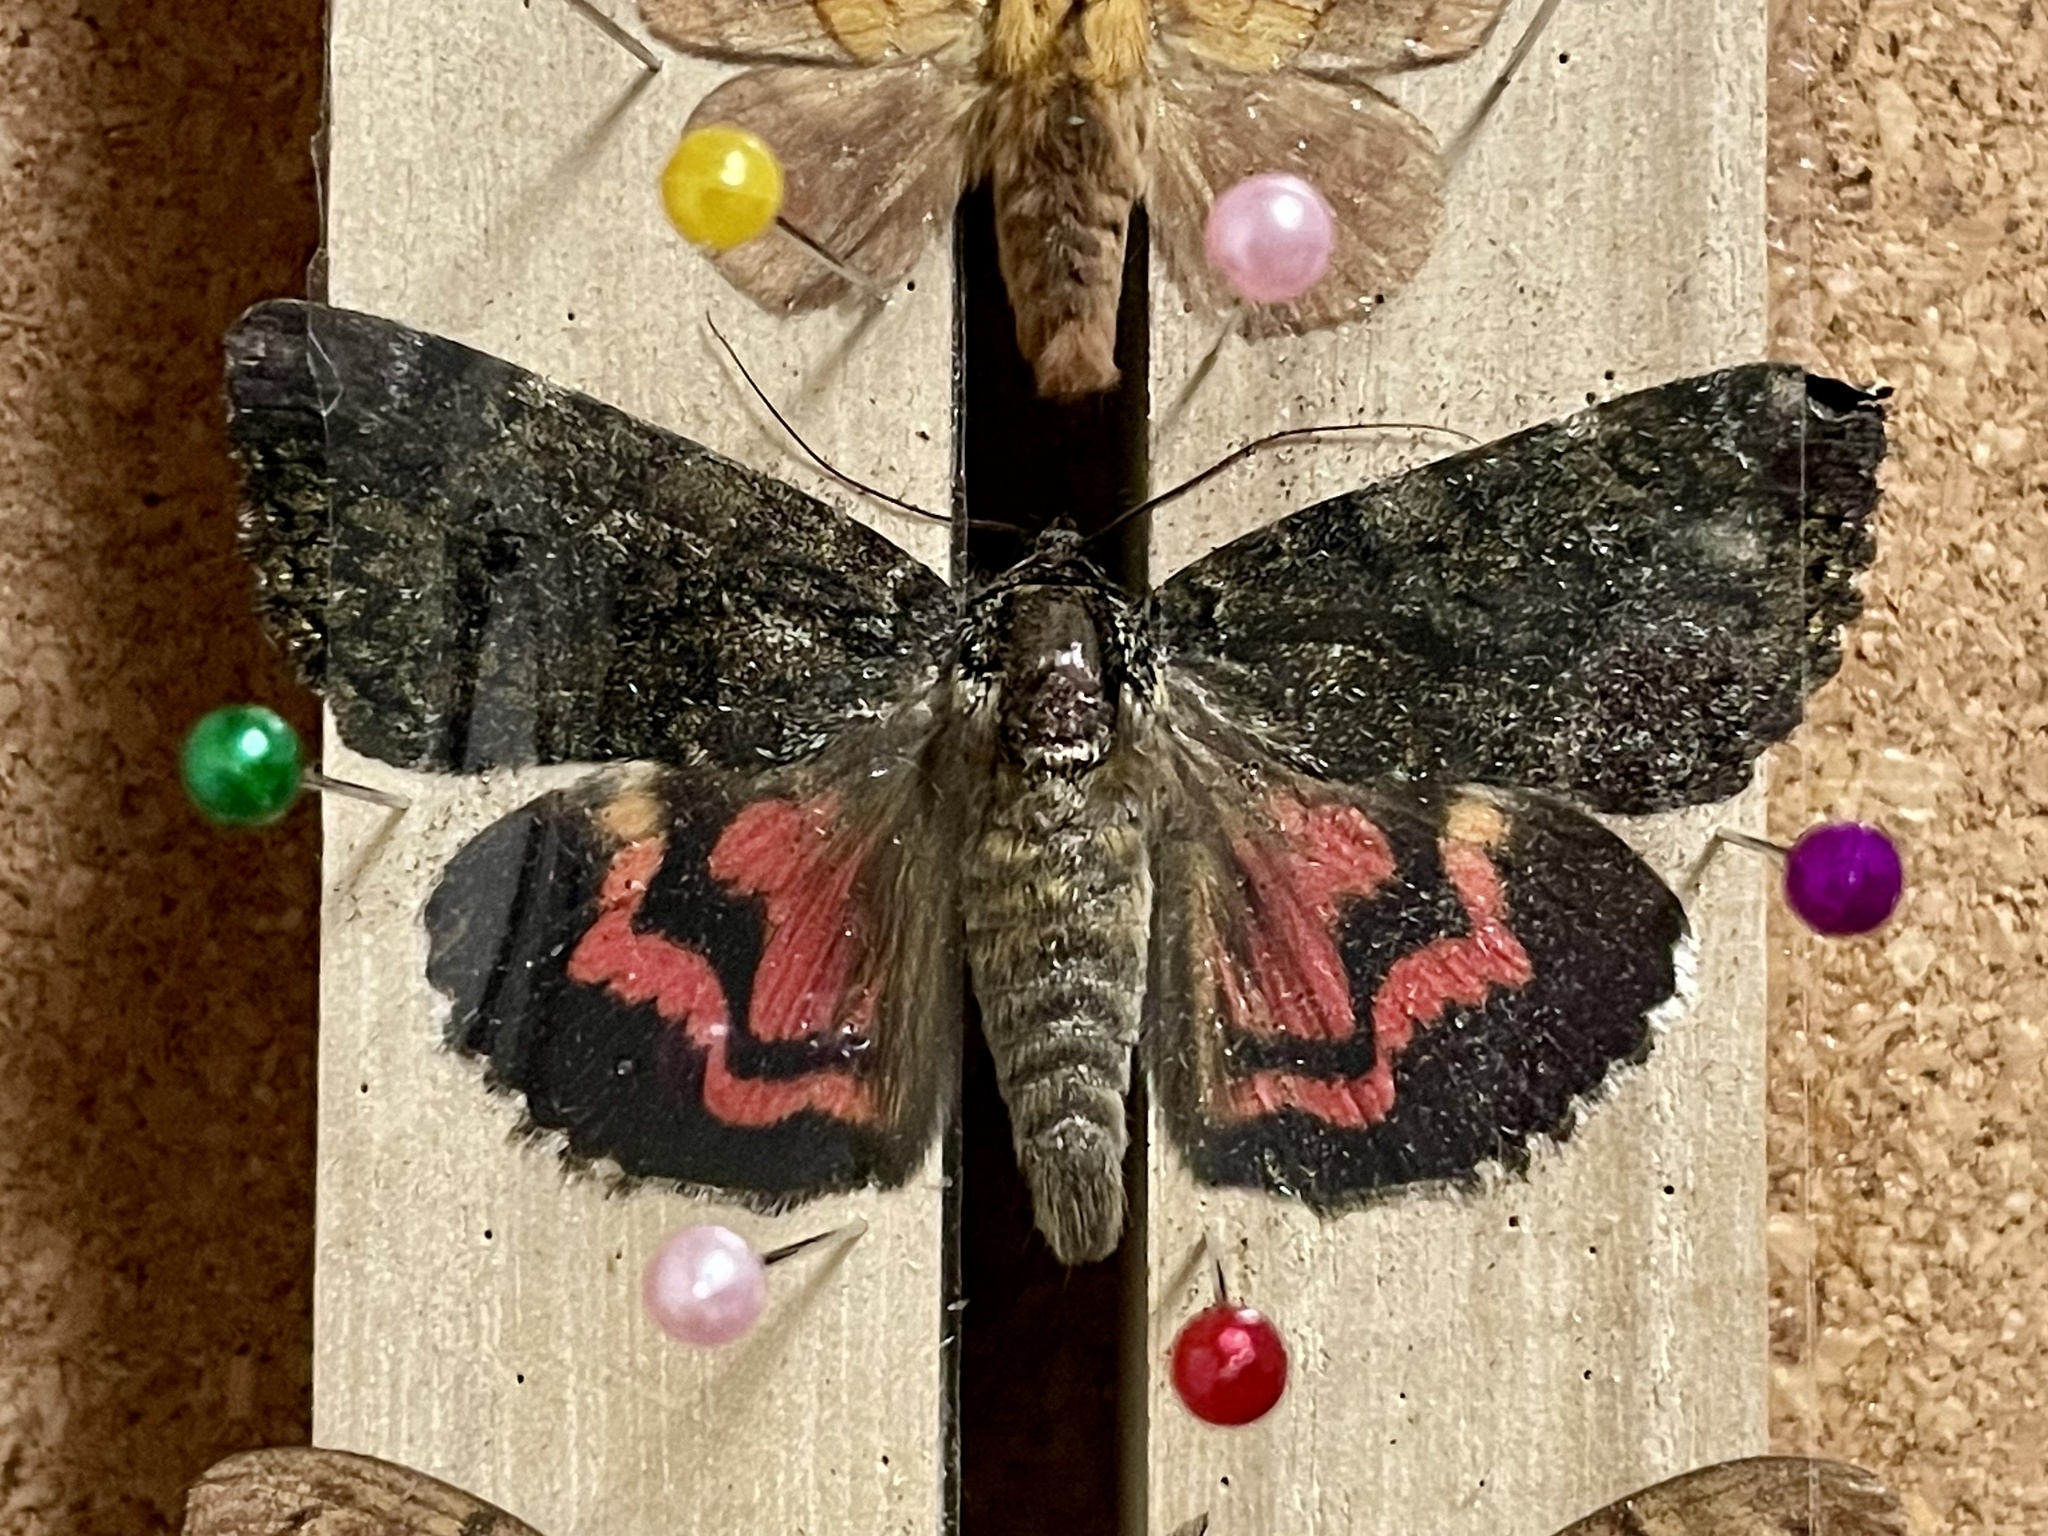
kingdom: Animalia
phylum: Arthropoda
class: Insecta
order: Lepidoptera
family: Erebidae
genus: Catocala
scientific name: Catocala dula
